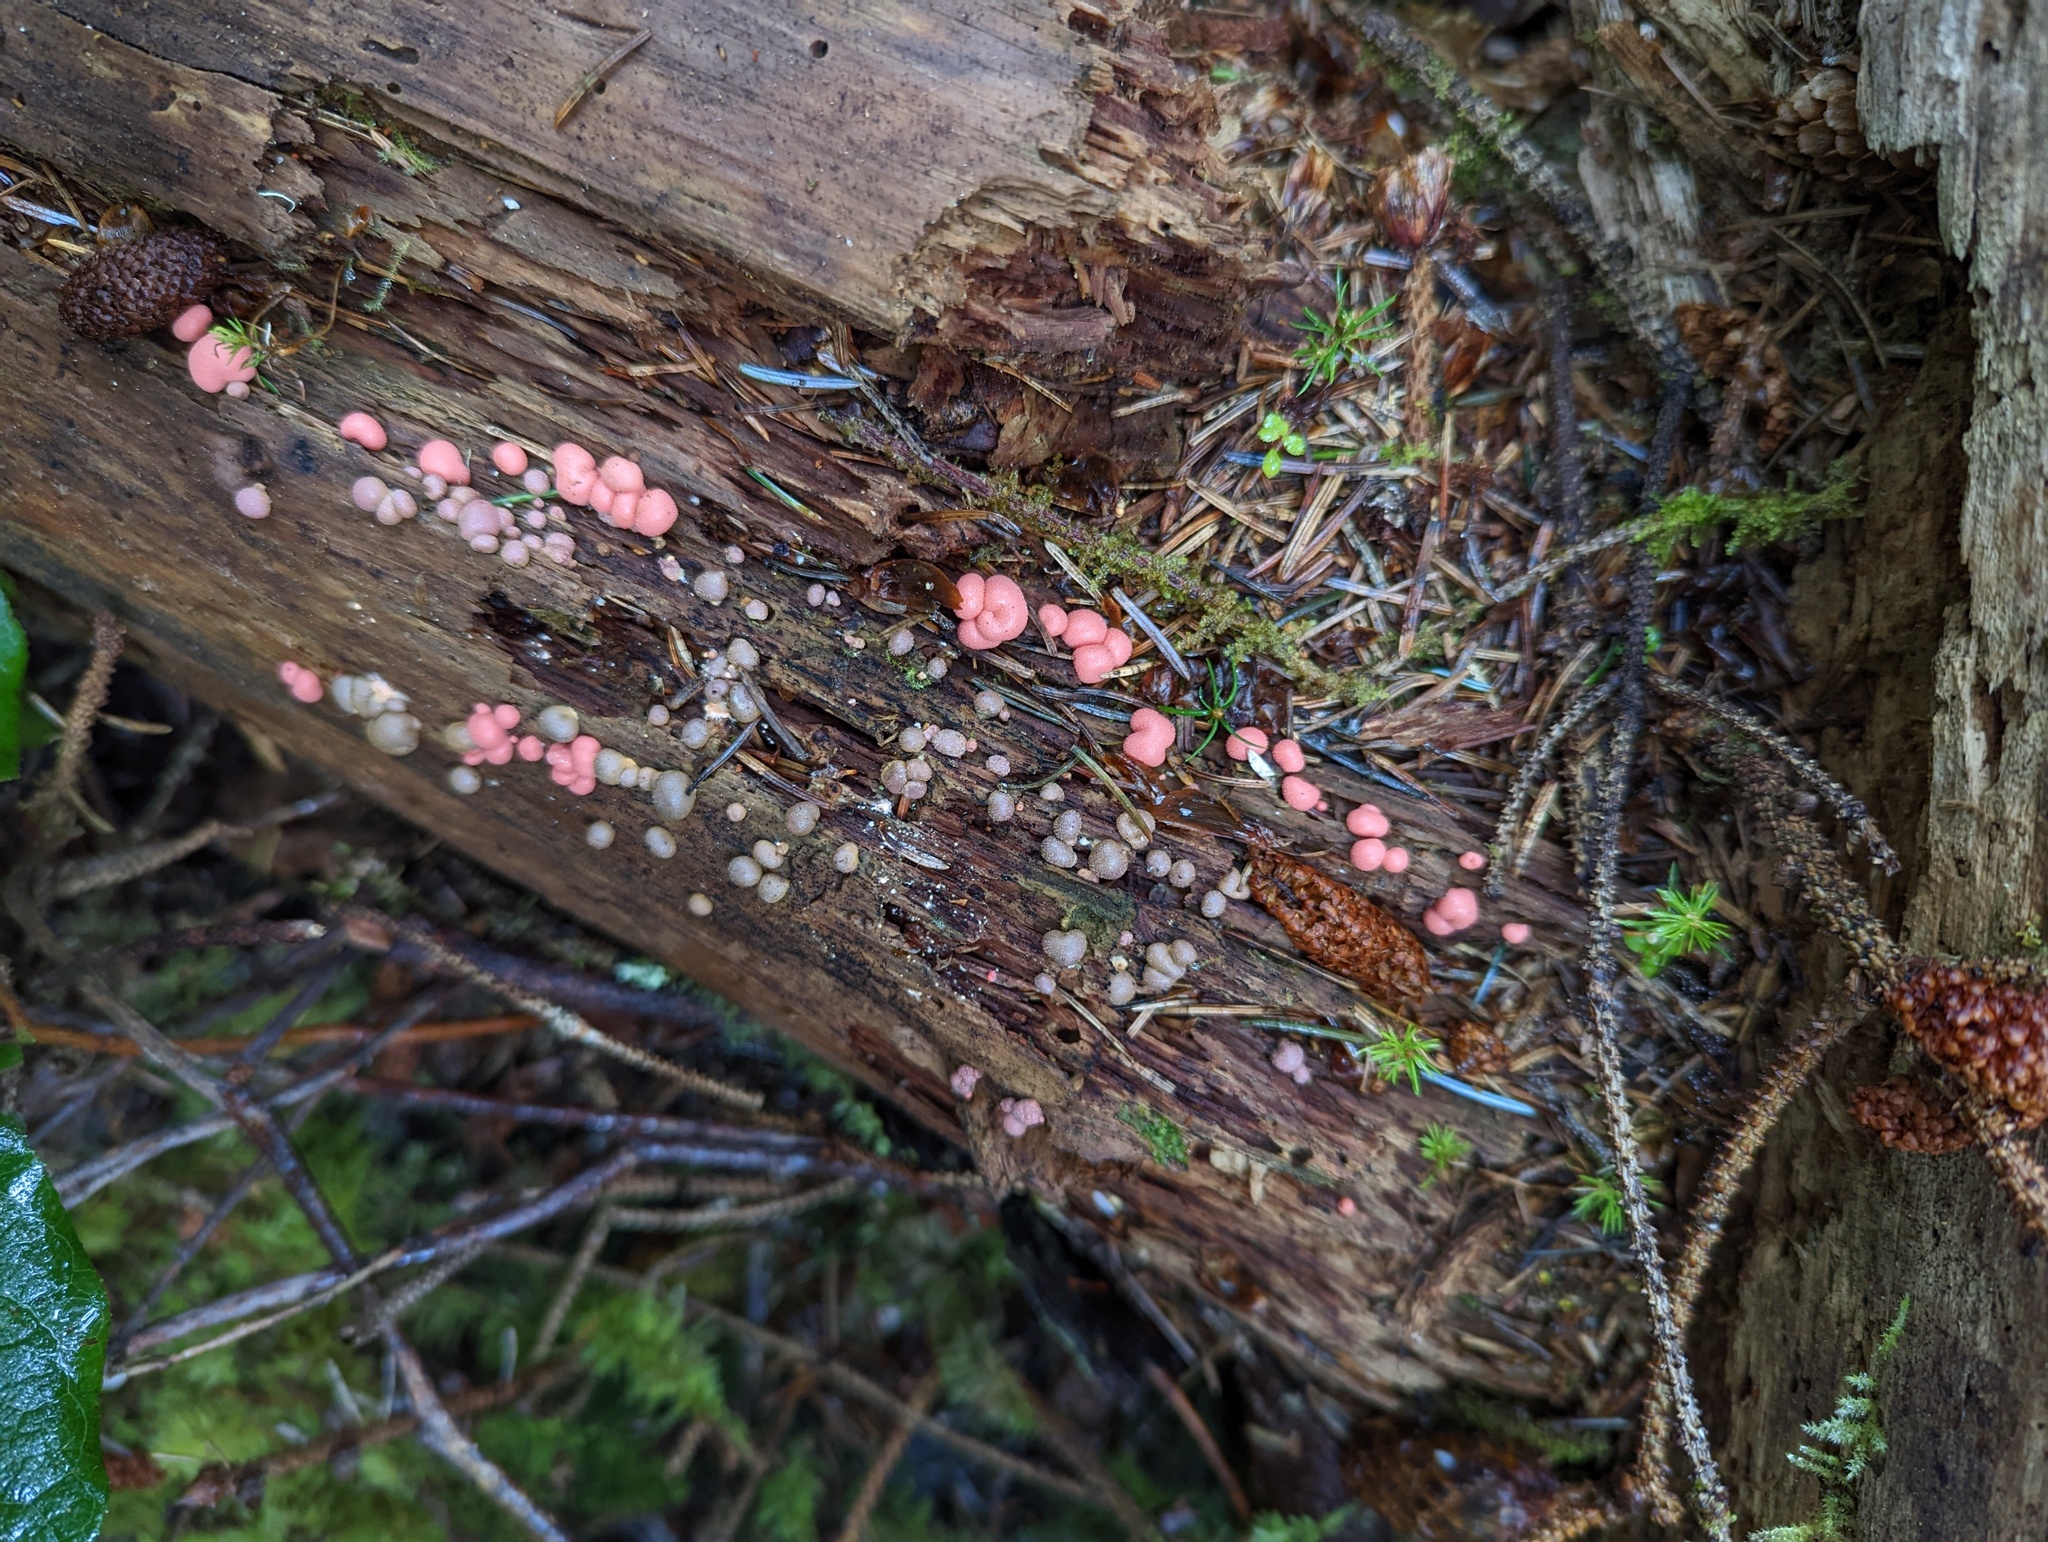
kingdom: Protozoa
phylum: Mycetozoa
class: Myxomycetes
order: Cribrariales
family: Tubiferaceae
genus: Lycogala
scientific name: Lycogala epidendrum
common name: Wolf's milk
